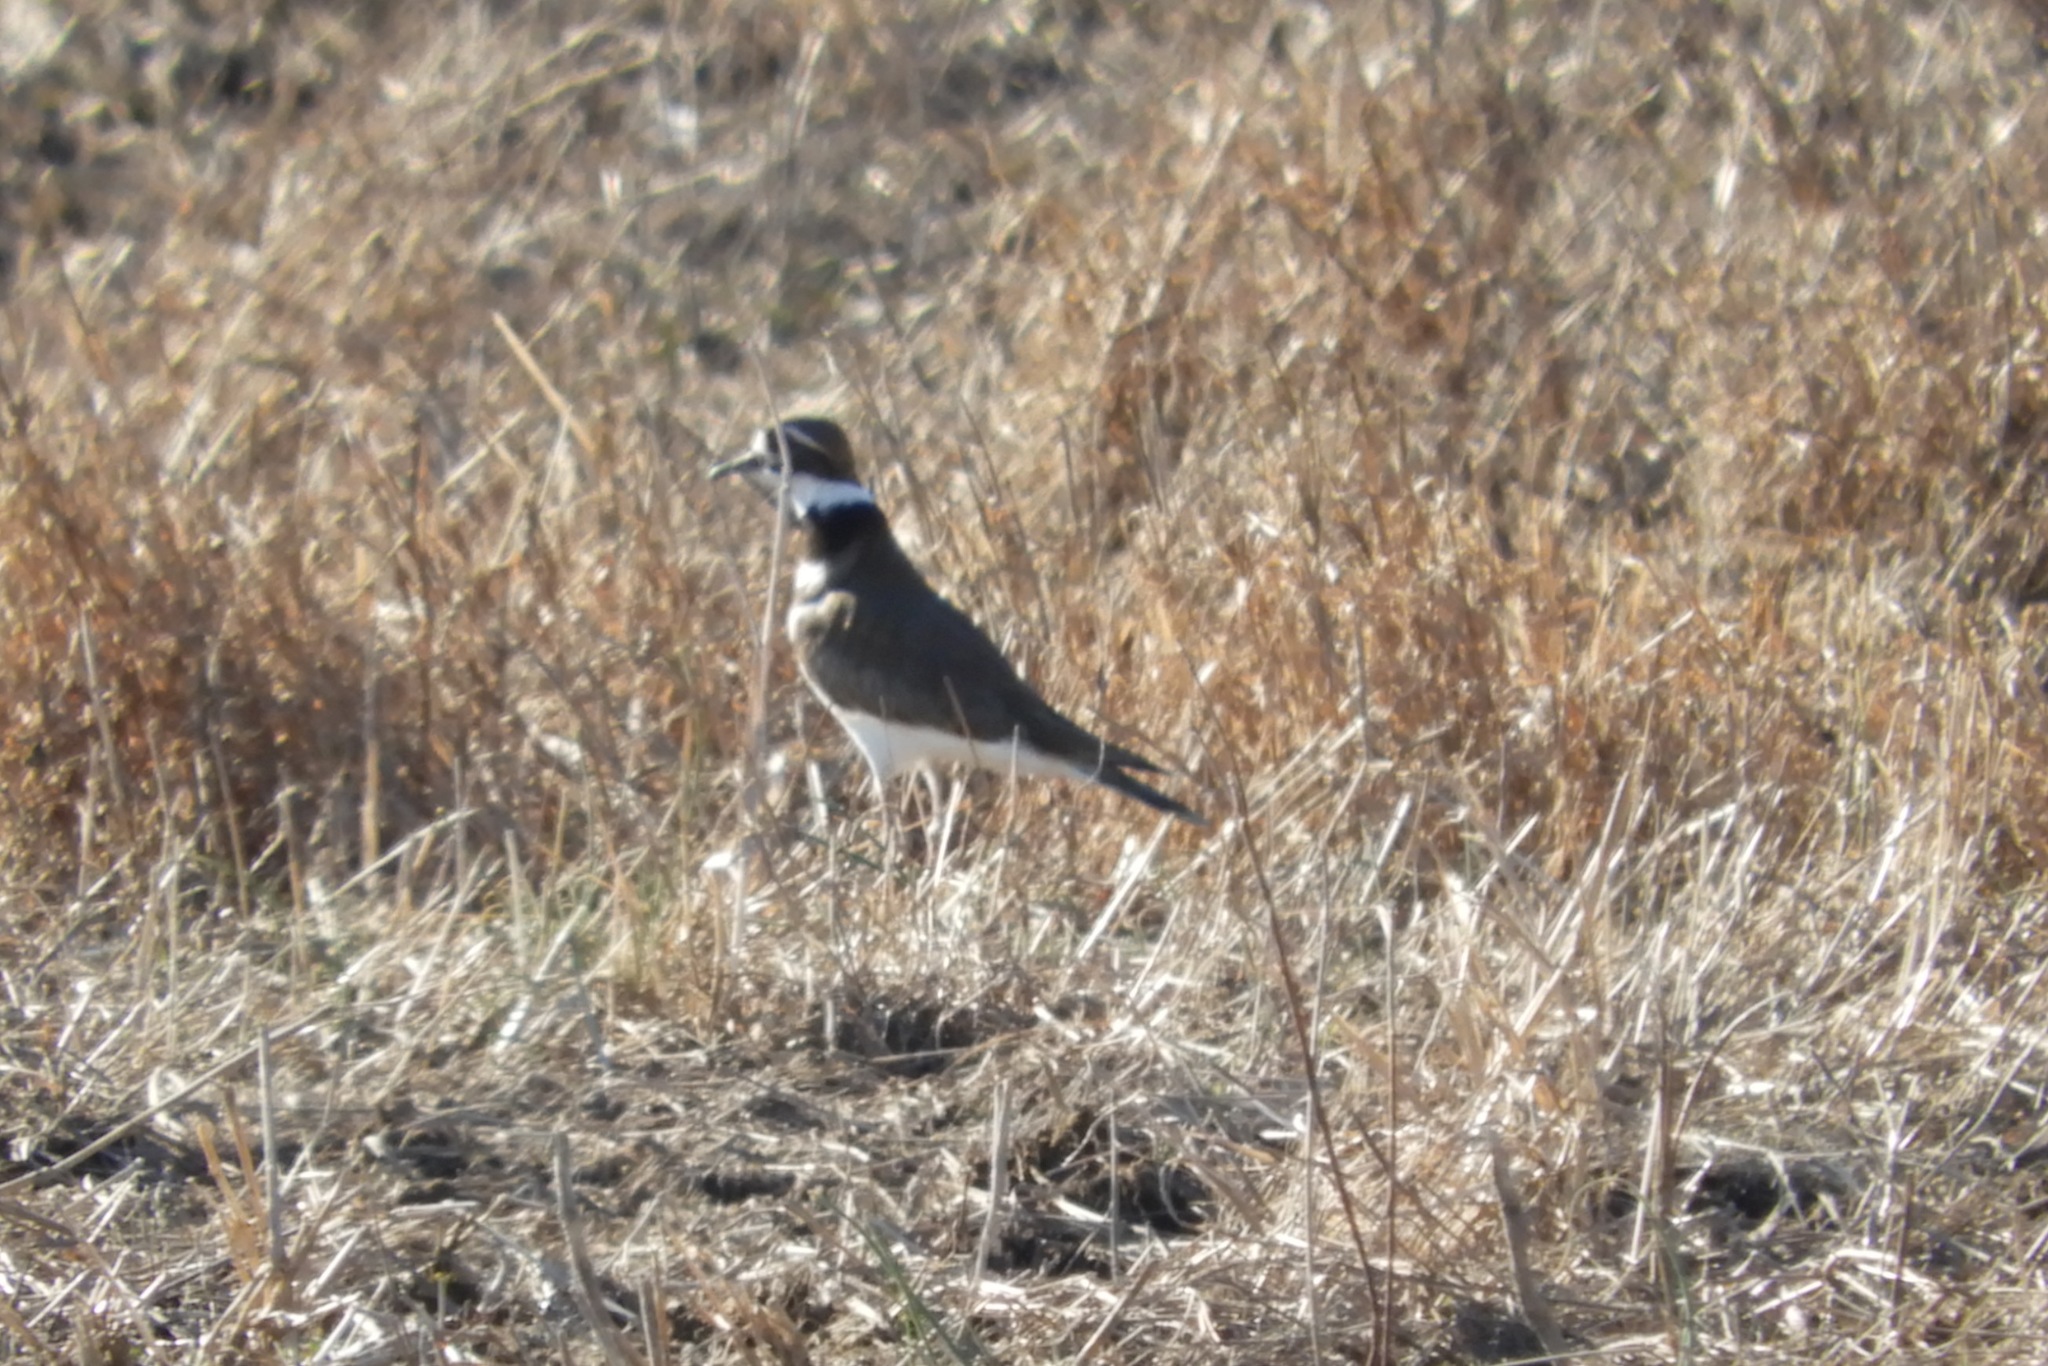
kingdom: Animalia
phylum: Chordata
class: Aves
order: Charadriiformes
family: Charadriidae
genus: Charadrius
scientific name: Charadrius vociferus
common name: Killdeer
